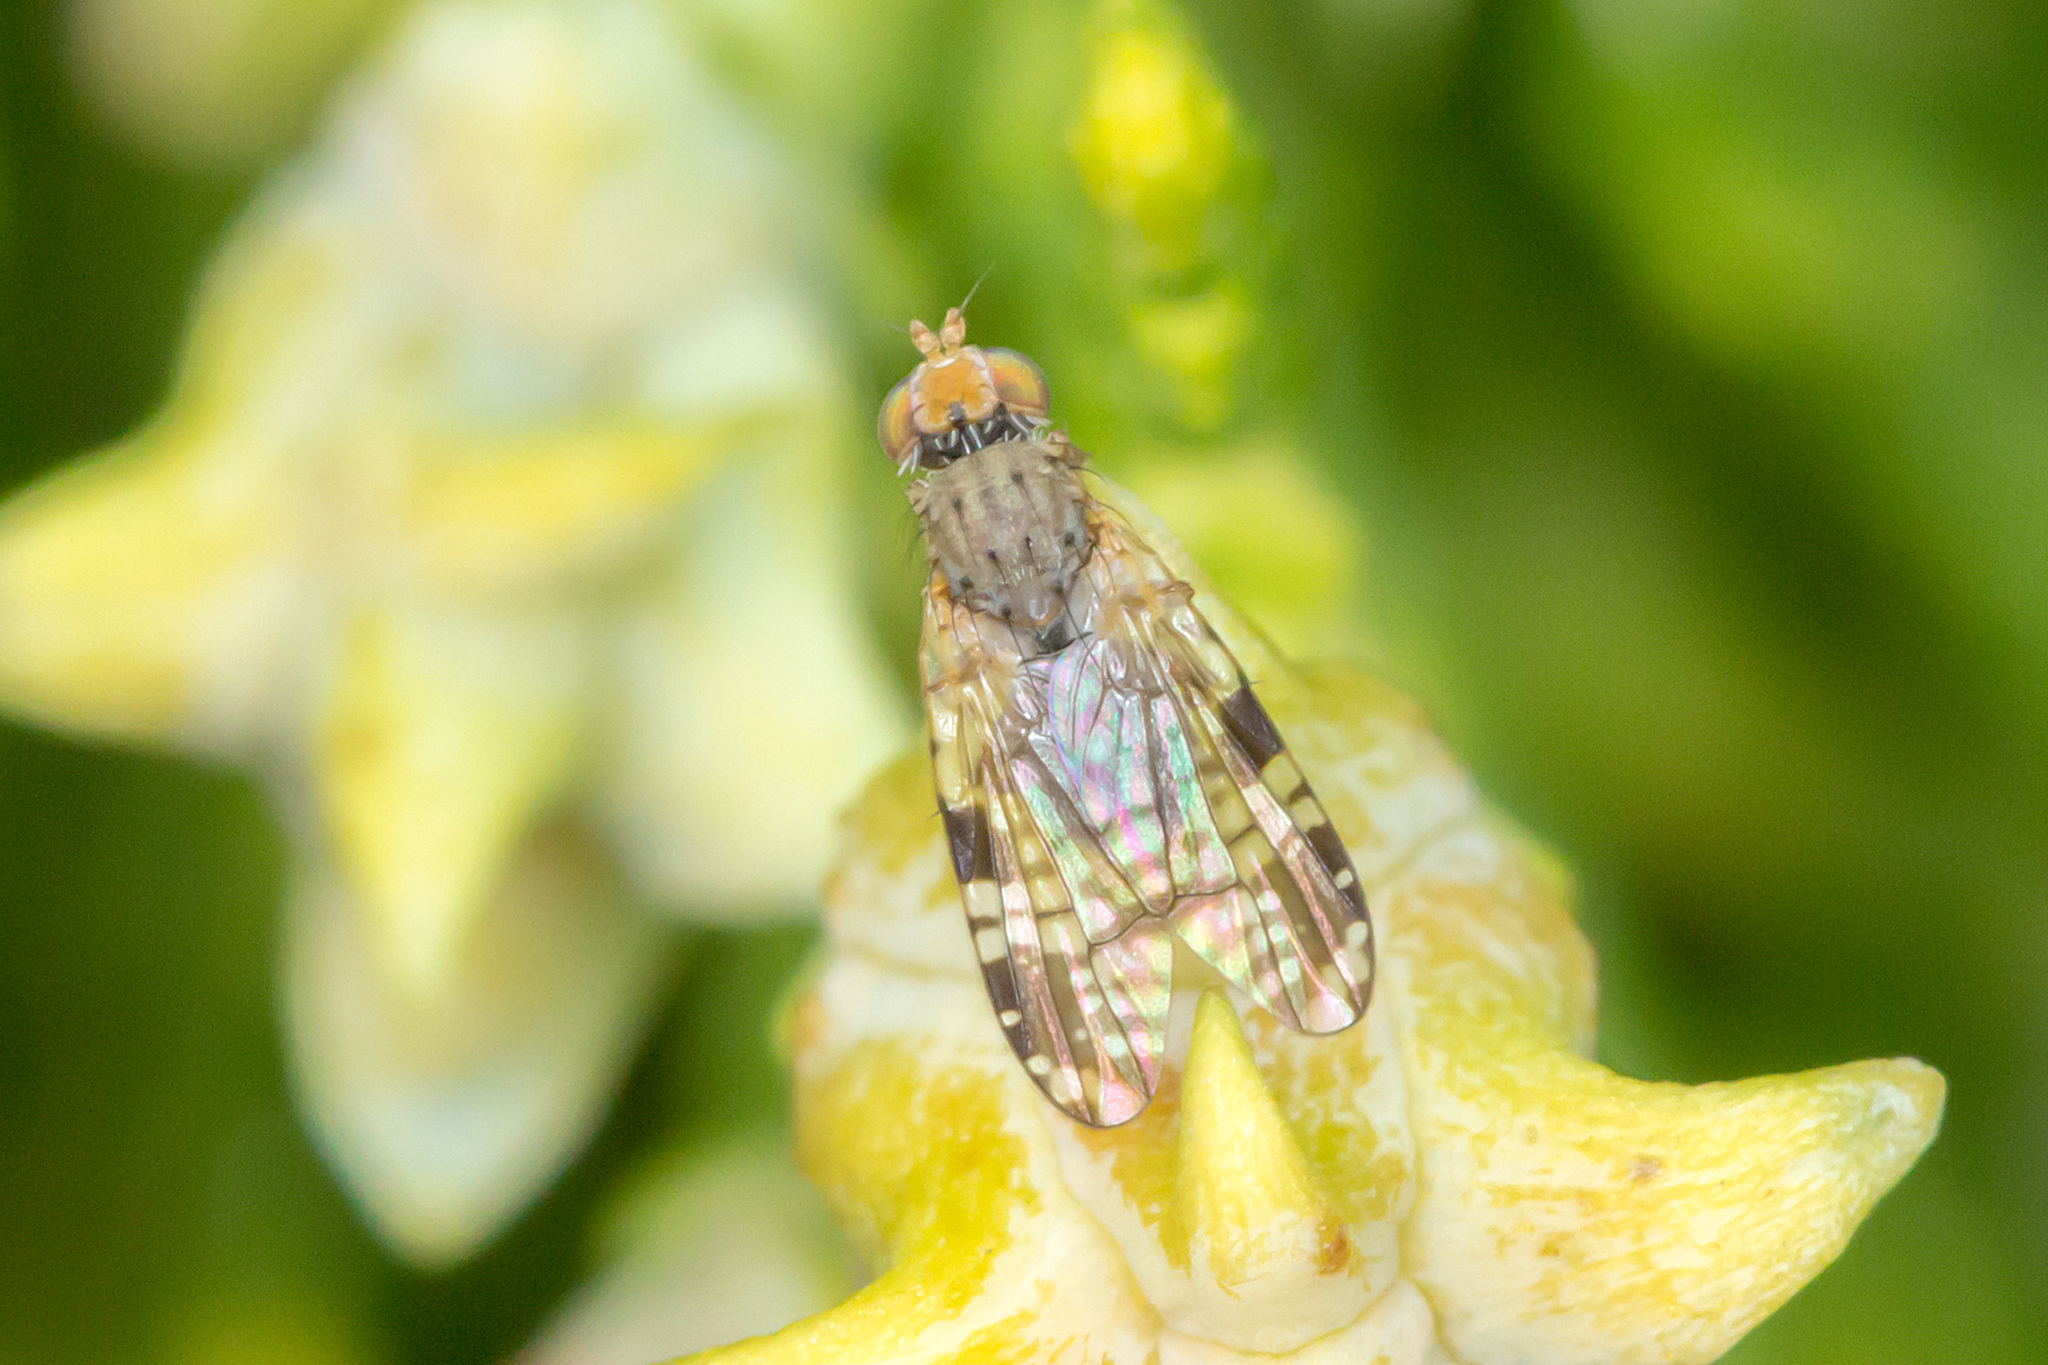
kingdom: Animalia
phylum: Arthropoda
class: Insecta
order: Diptera
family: Tephritidae
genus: Austrotephritis
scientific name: Austrotephritis
